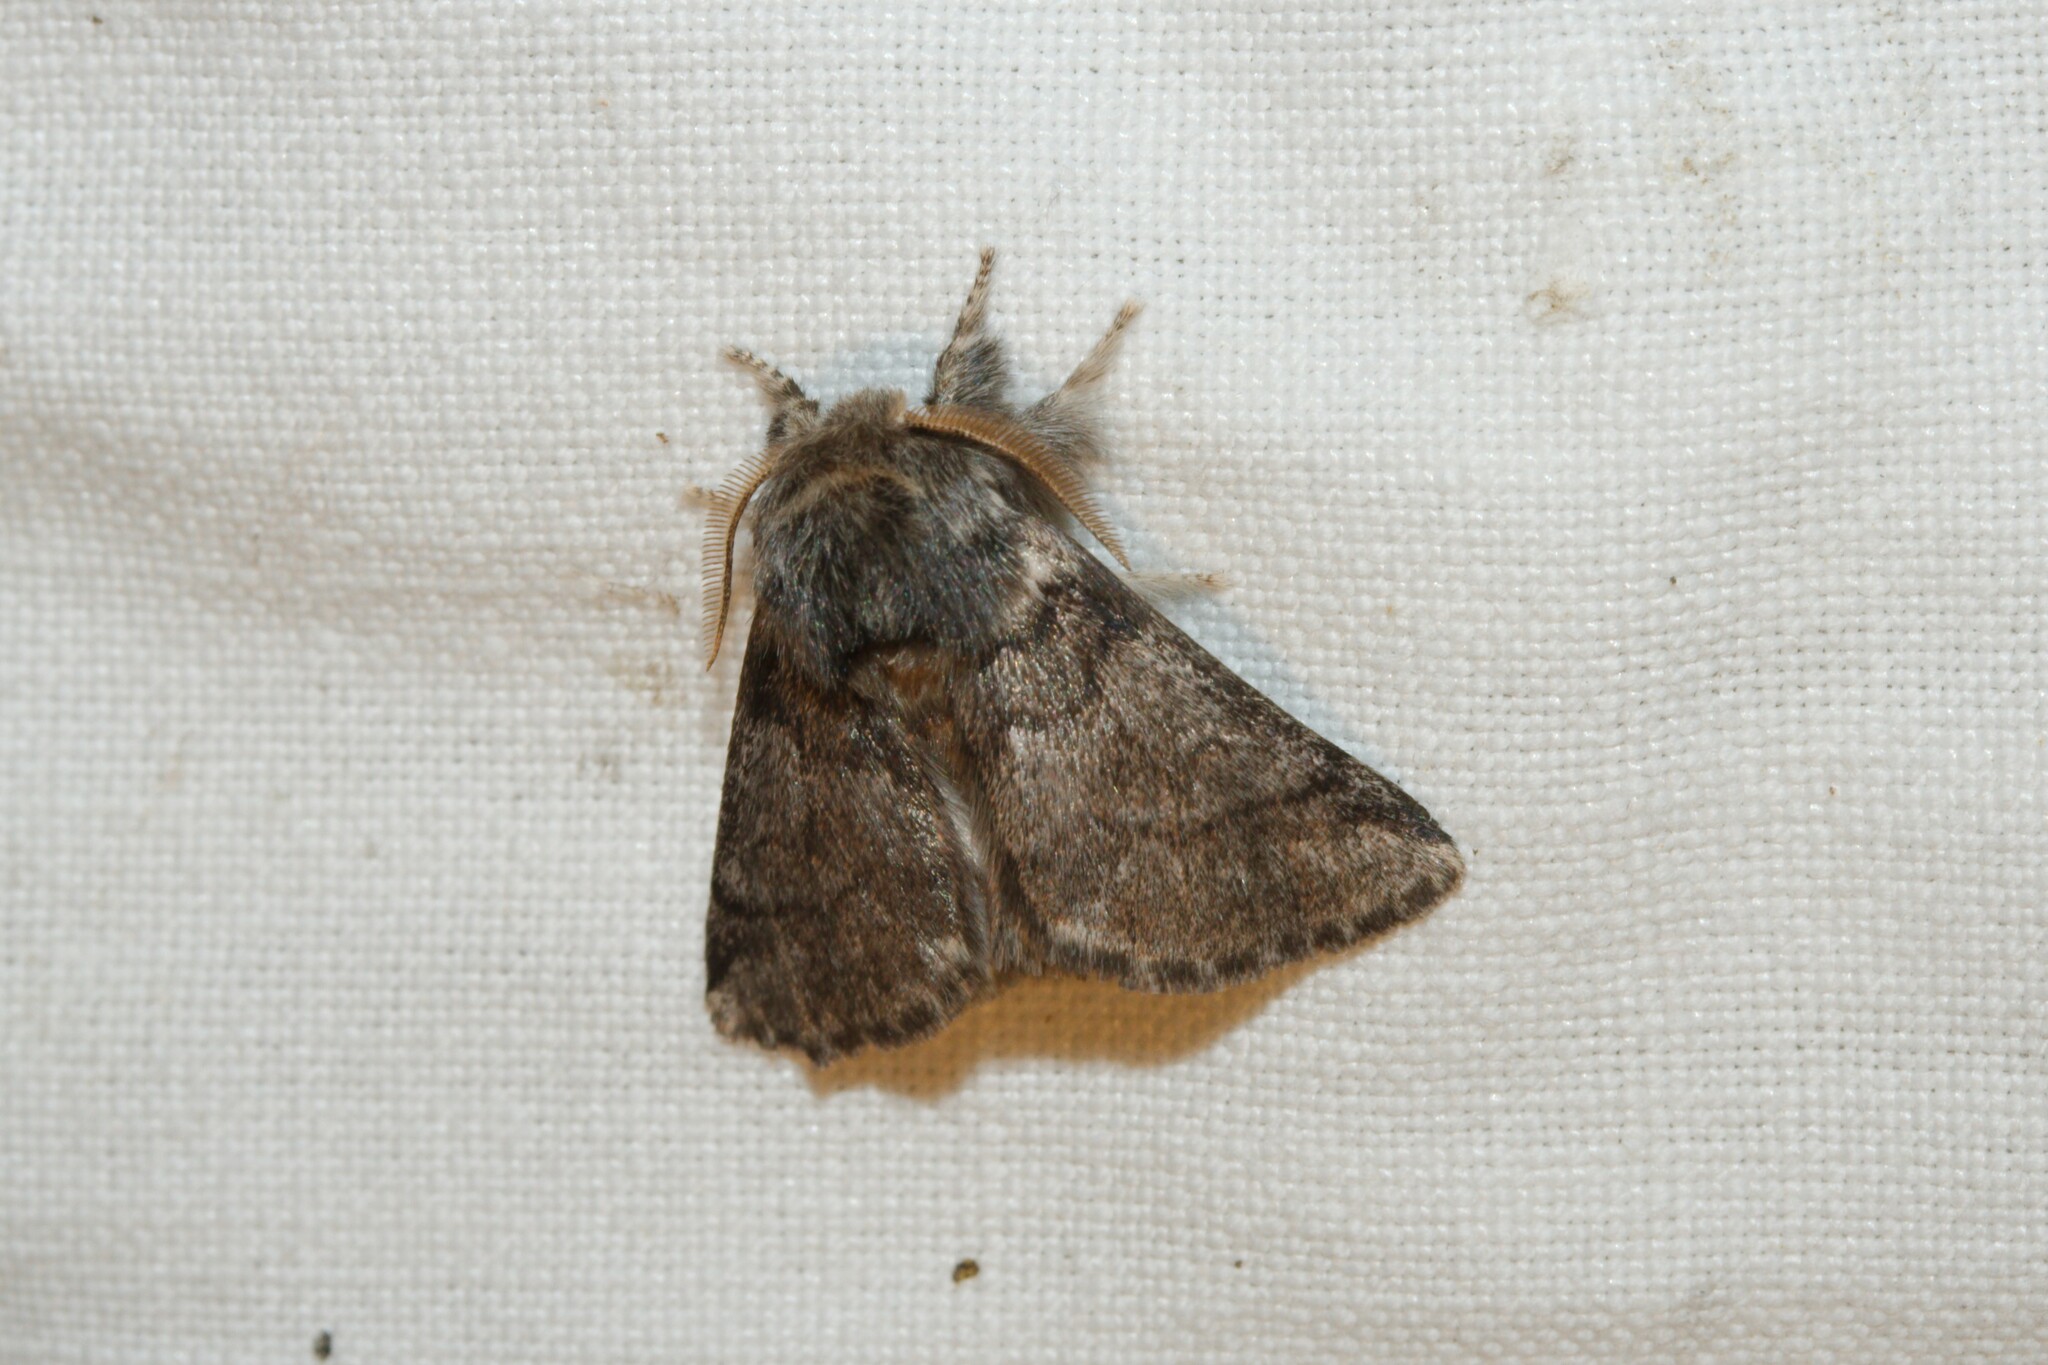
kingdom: Animalia
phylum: Arthropoda
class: Insecta
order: Lepidoptera
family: Notodontidae
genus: Thaumetopoea
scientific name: Thaumetopoea processionea
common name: Oak processionea
